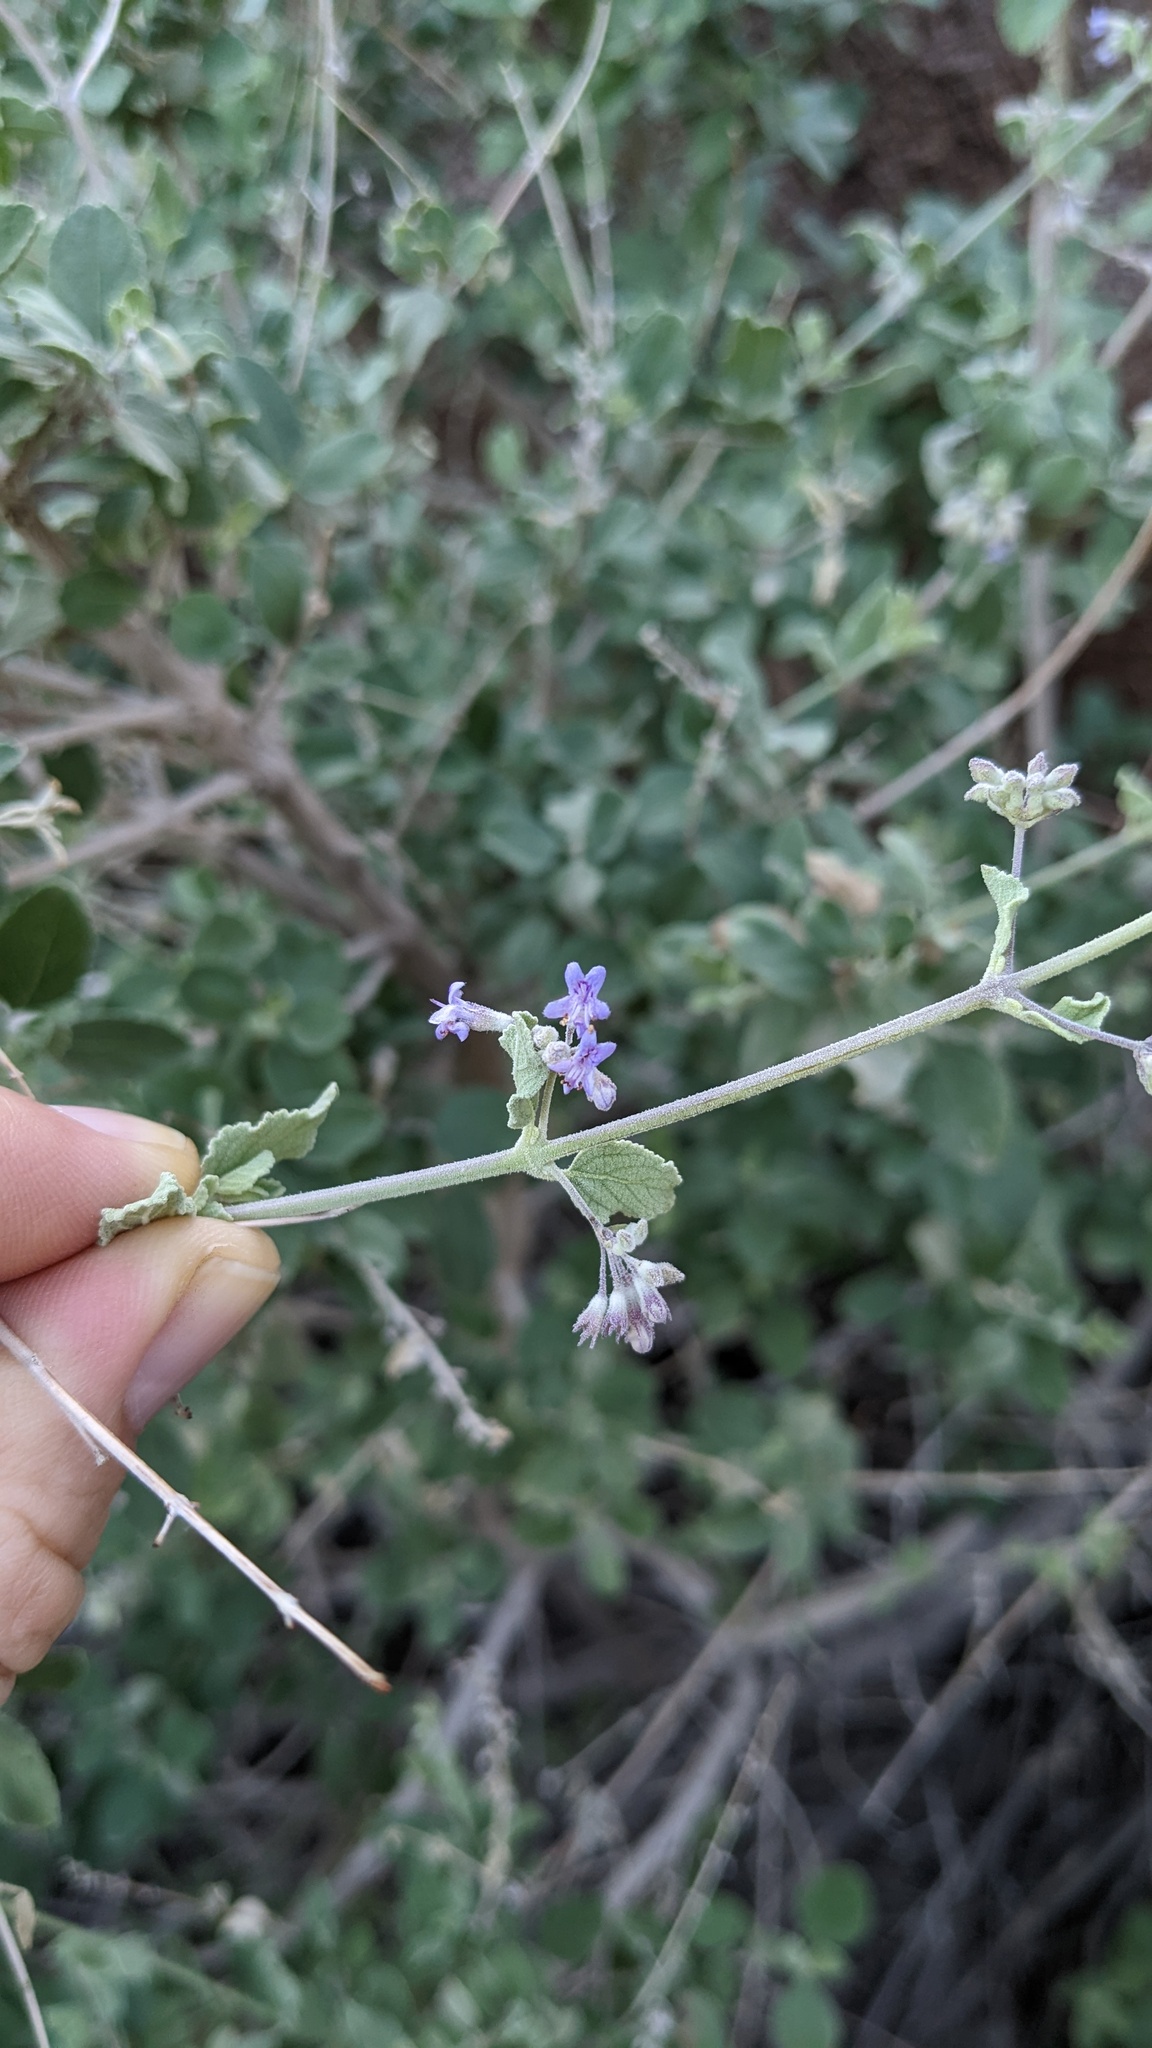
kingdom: Plantae
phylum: Tracheophyta
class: Magnoliopsida
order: Lamiales
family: Lamiaceae
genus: Condea
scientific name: Condea emoryi
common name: Chia
